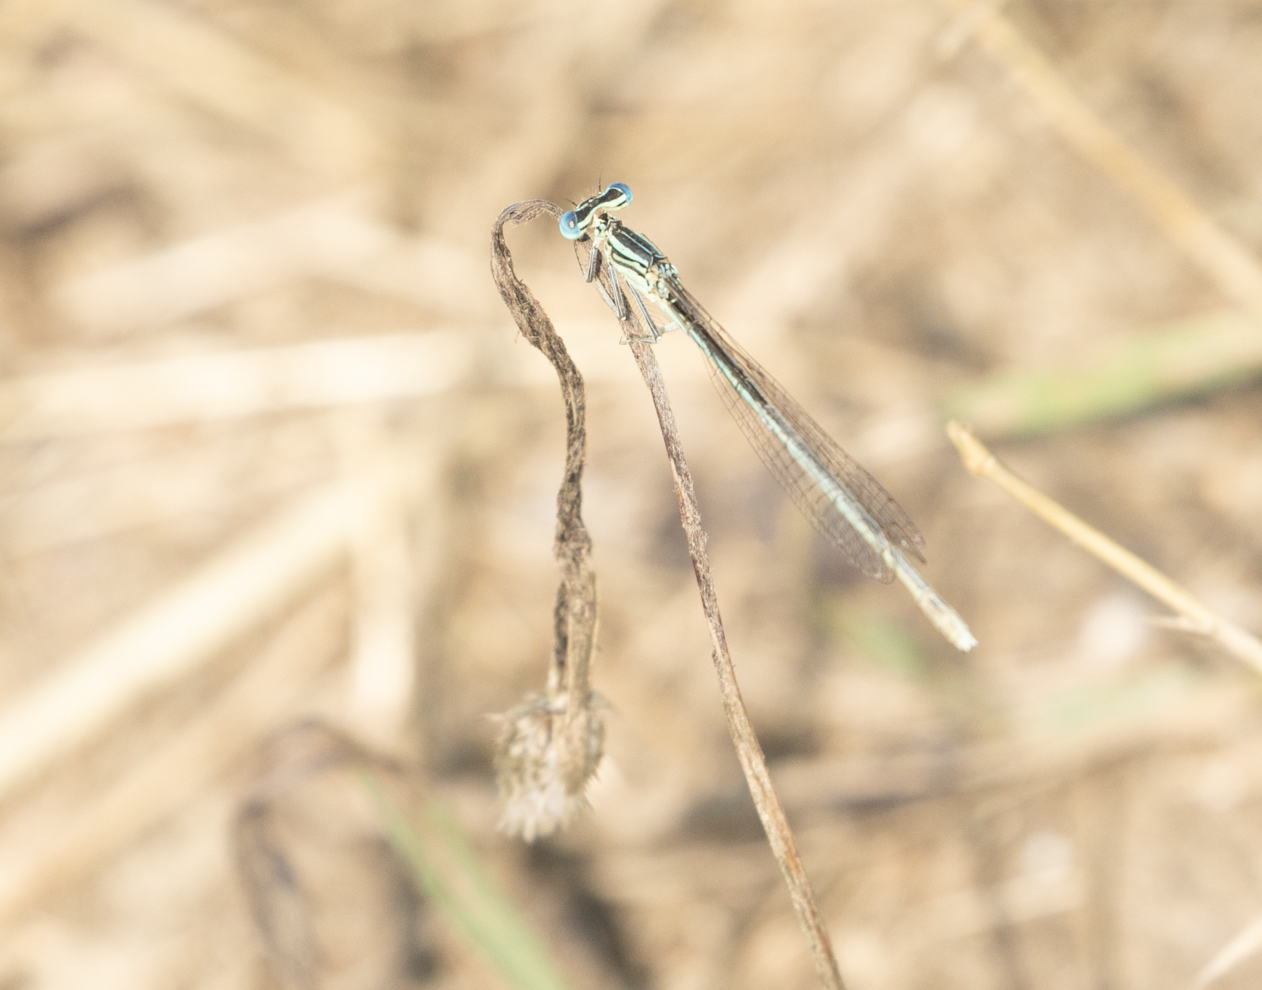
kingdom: Animalia
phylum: Arthropoda
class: Insecta
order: Odonata
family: Platycnemididae
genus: Platycnemis
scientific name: Platycnemis pennipes
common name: White-legged damselfly
